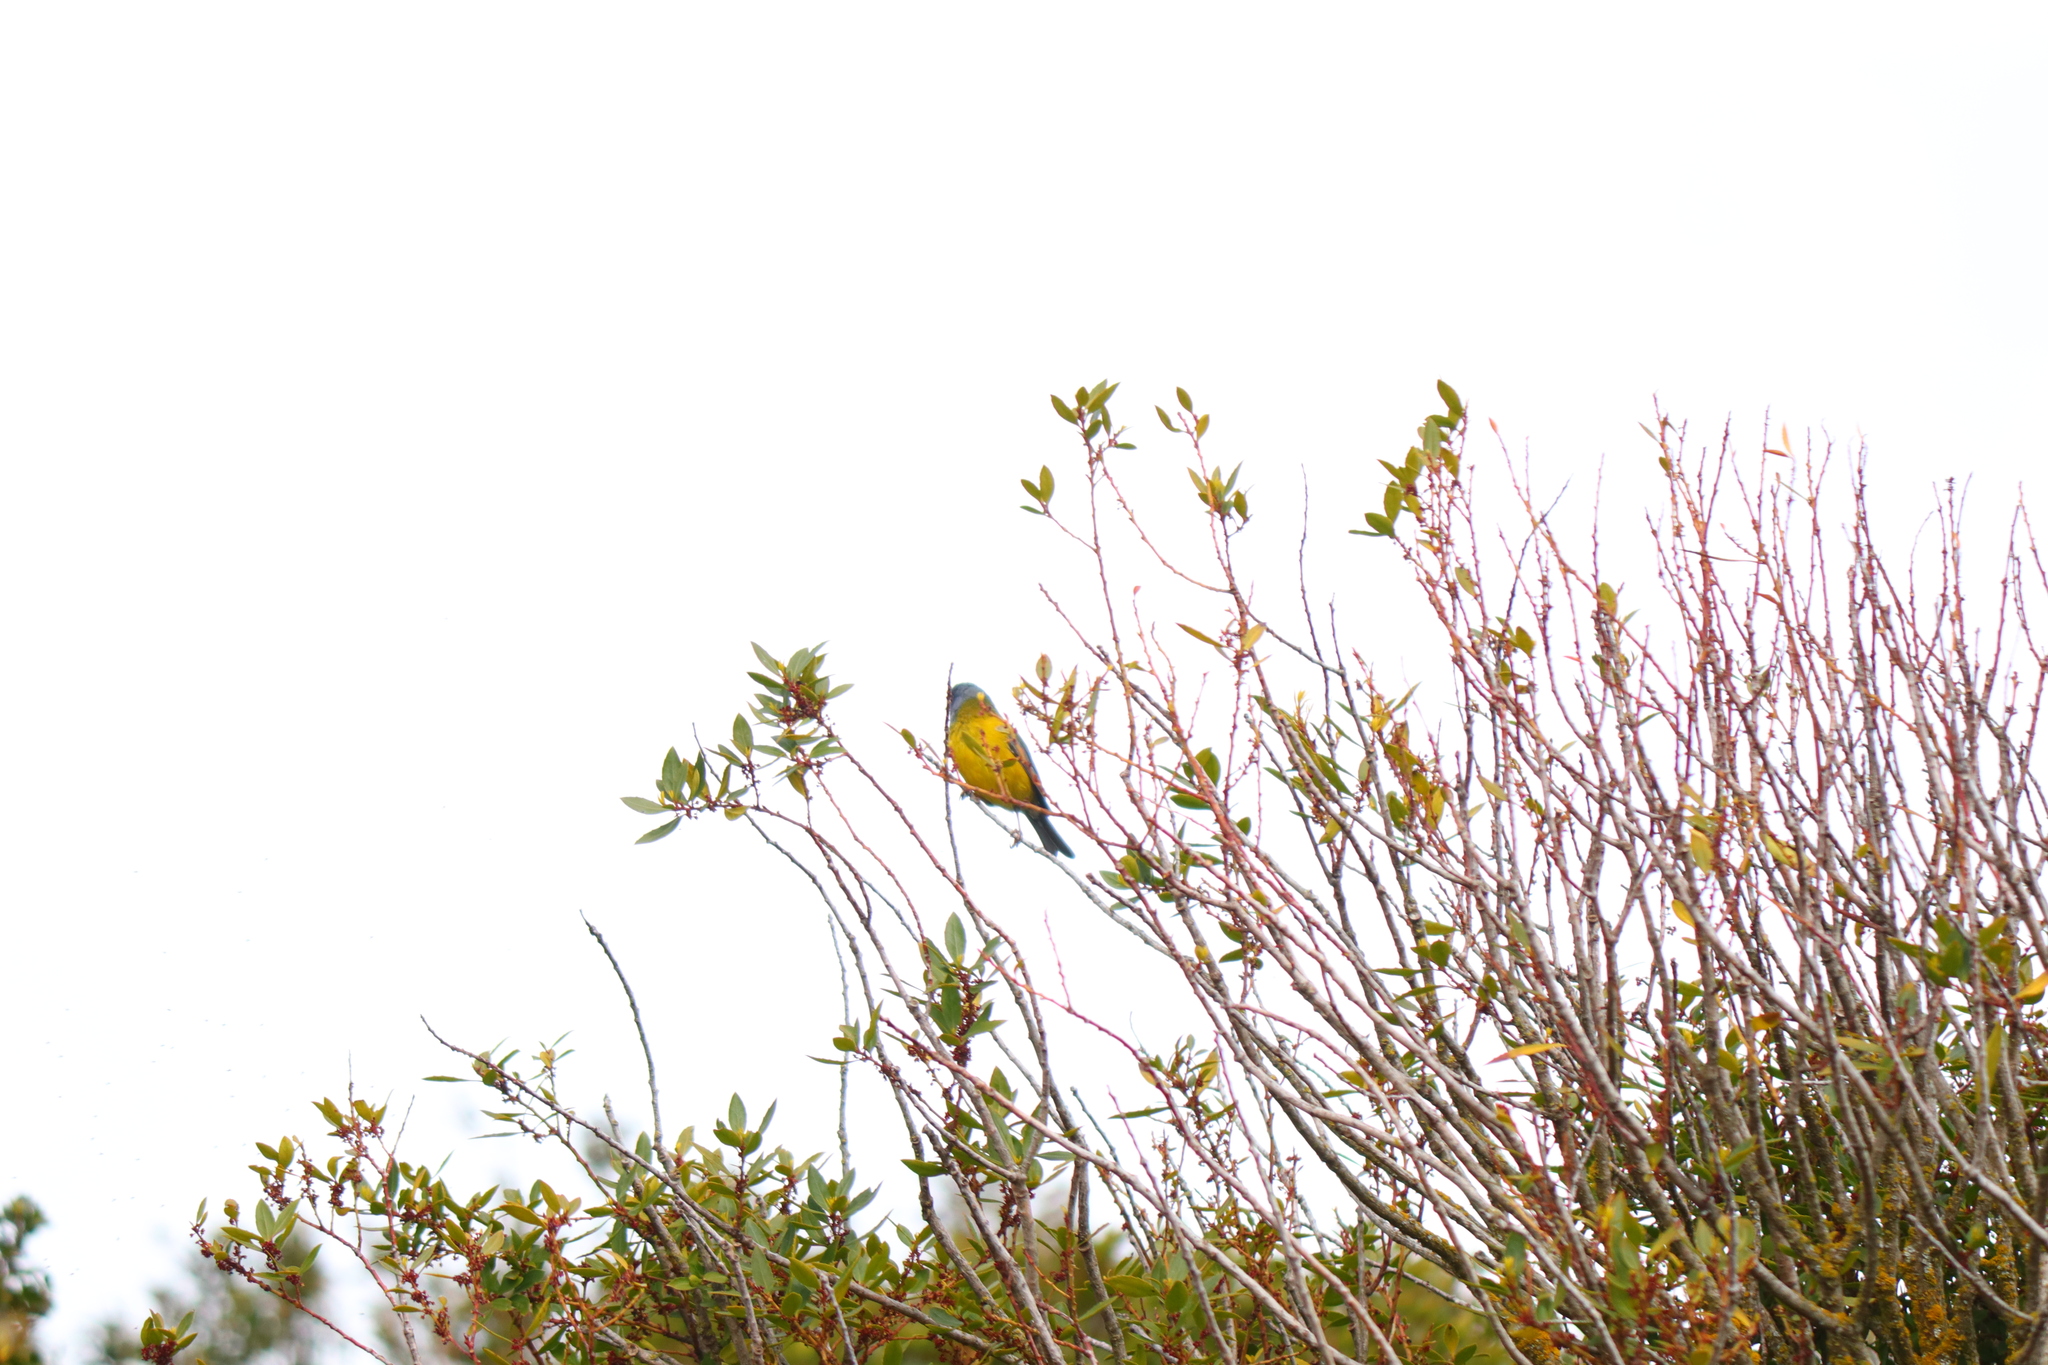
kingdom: Animalia
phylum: Chordata
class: Aves
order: Passeriformes
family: Thraupidae
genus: Phrygilus
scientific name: Phrygilus patagonicus
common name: Patagonian sierra finch
